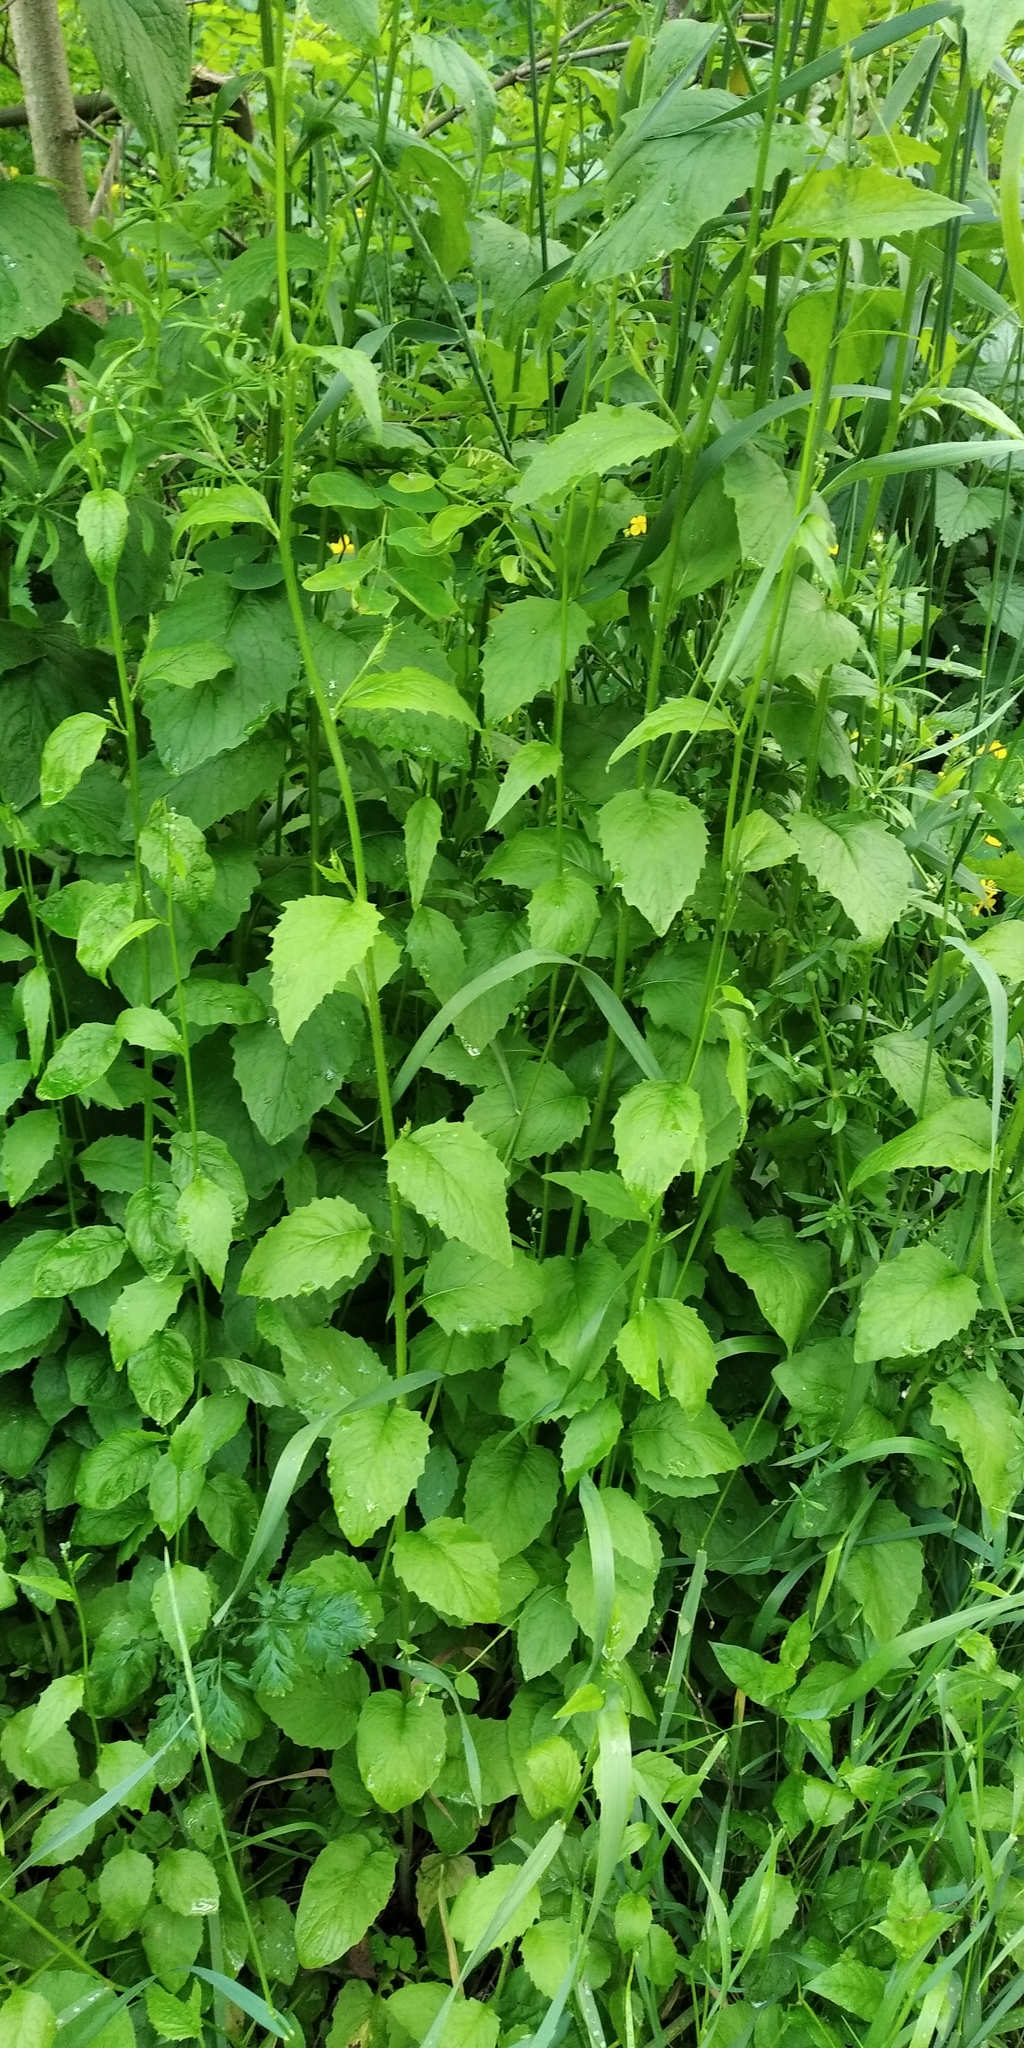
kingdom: Plantae
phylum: Tracheophyta
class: Magnoliopsida
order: Asterales
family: Asteraceae
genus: Lapsana
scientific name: Lapsana communis
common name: Nipplewort
